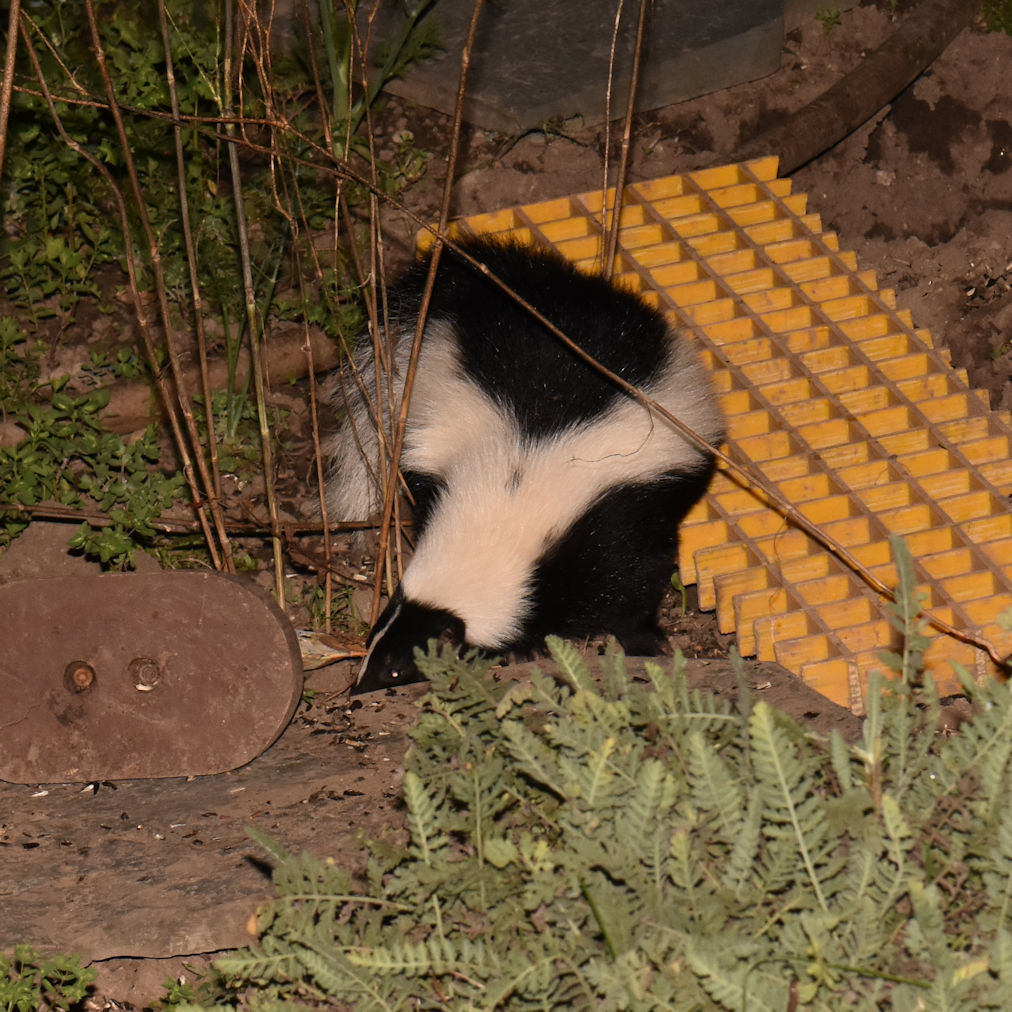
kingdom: Animalia
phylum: Chordata
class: Mammalia
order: Carnivora
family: Mephitidae
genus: Mephitis
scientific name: Mephitis mephitis
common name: Striped skunk
